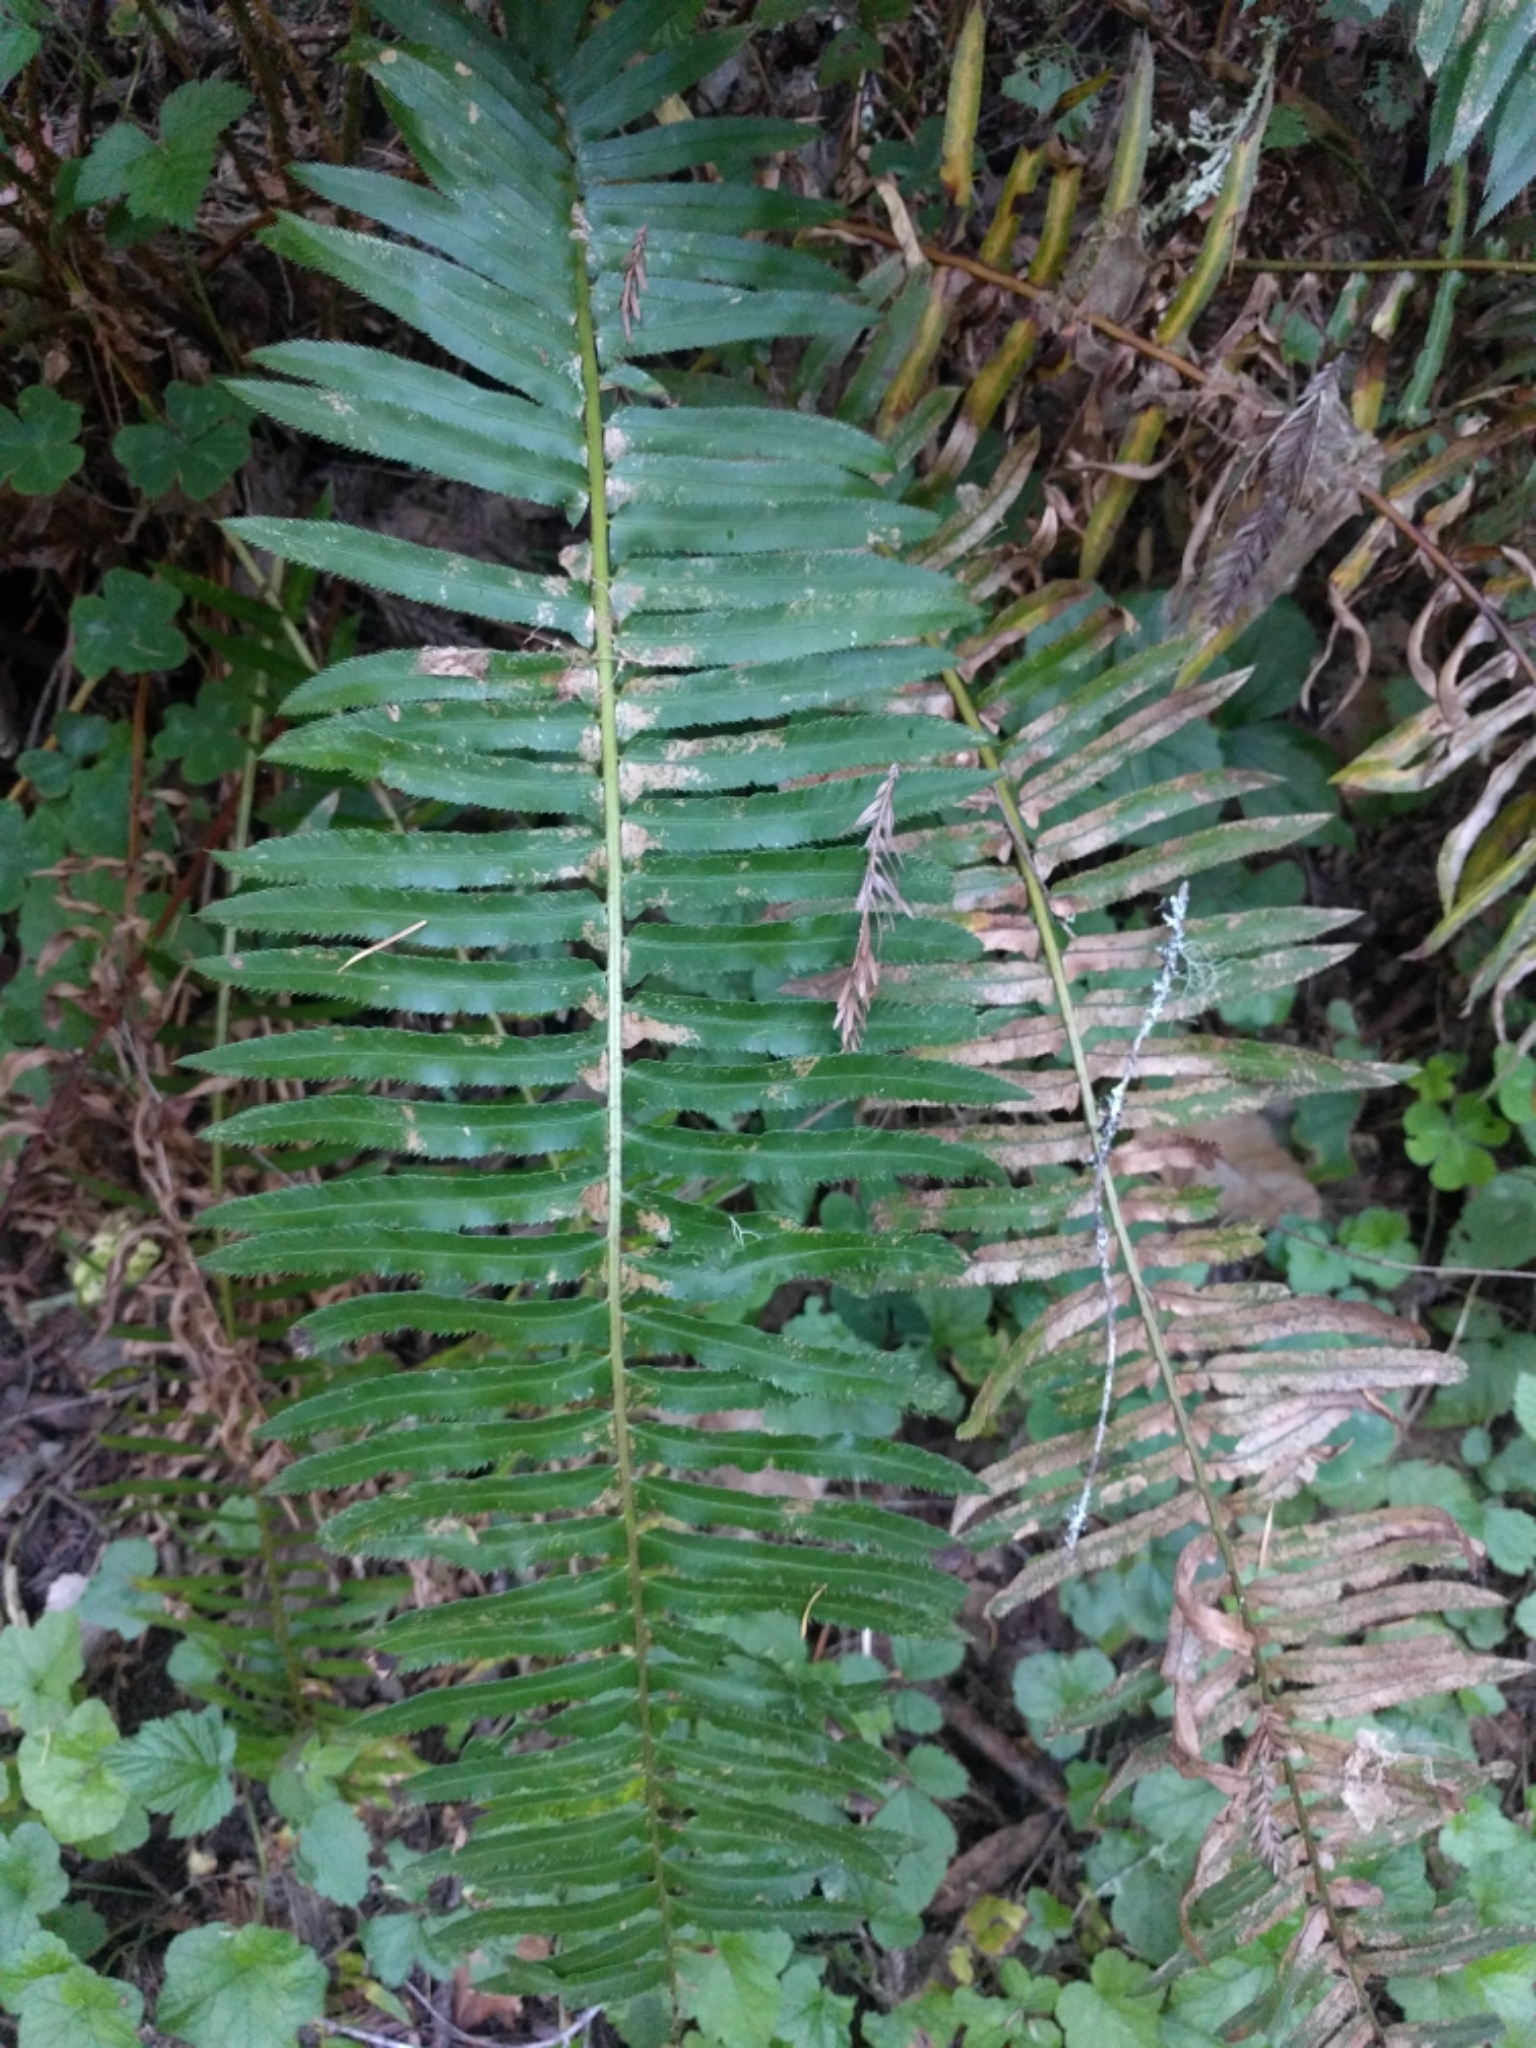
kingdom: Plantae
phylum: Tracheophyta
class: Polypodiopsida
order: Polypodiales
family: Dryopteridaceae
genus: Polystichum
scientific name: Polystichum munitum
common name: Western sword-fern
